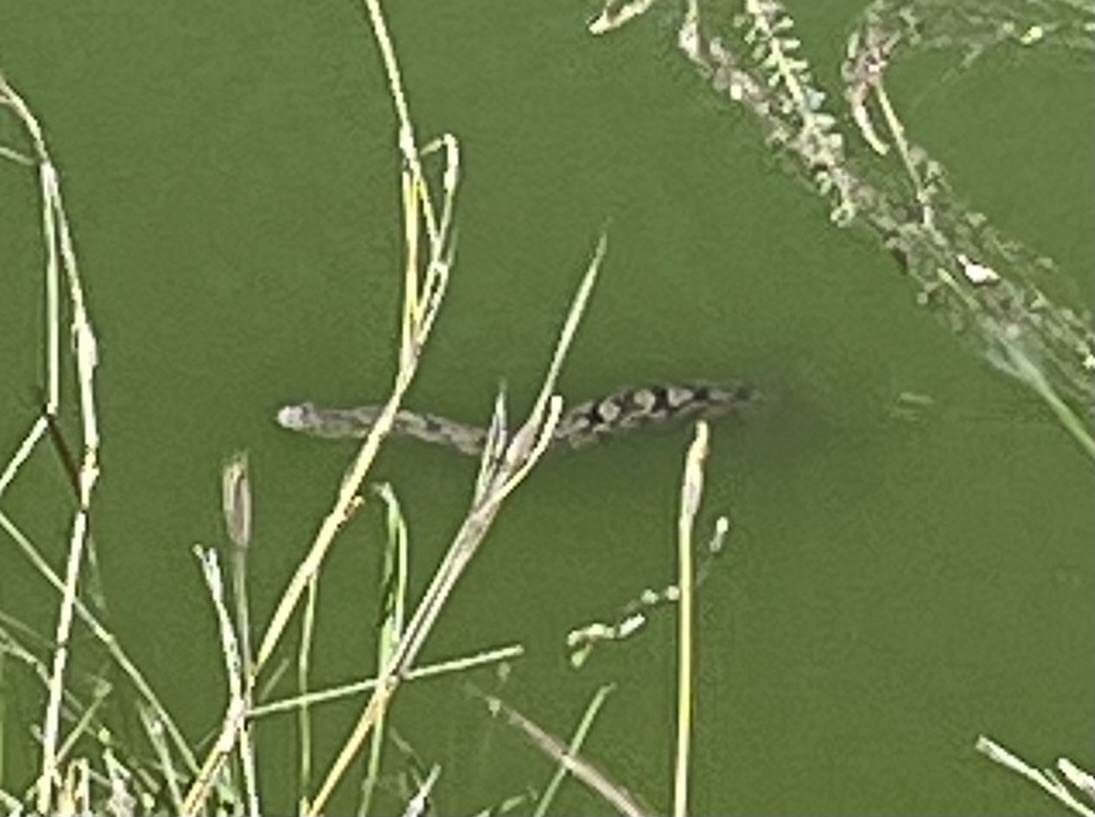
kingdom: Animalia
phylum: Chordata
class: Squamata
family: Colubridae
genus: Nerodia
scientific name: Nerodia rhombifer
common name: Diamondback water snake
